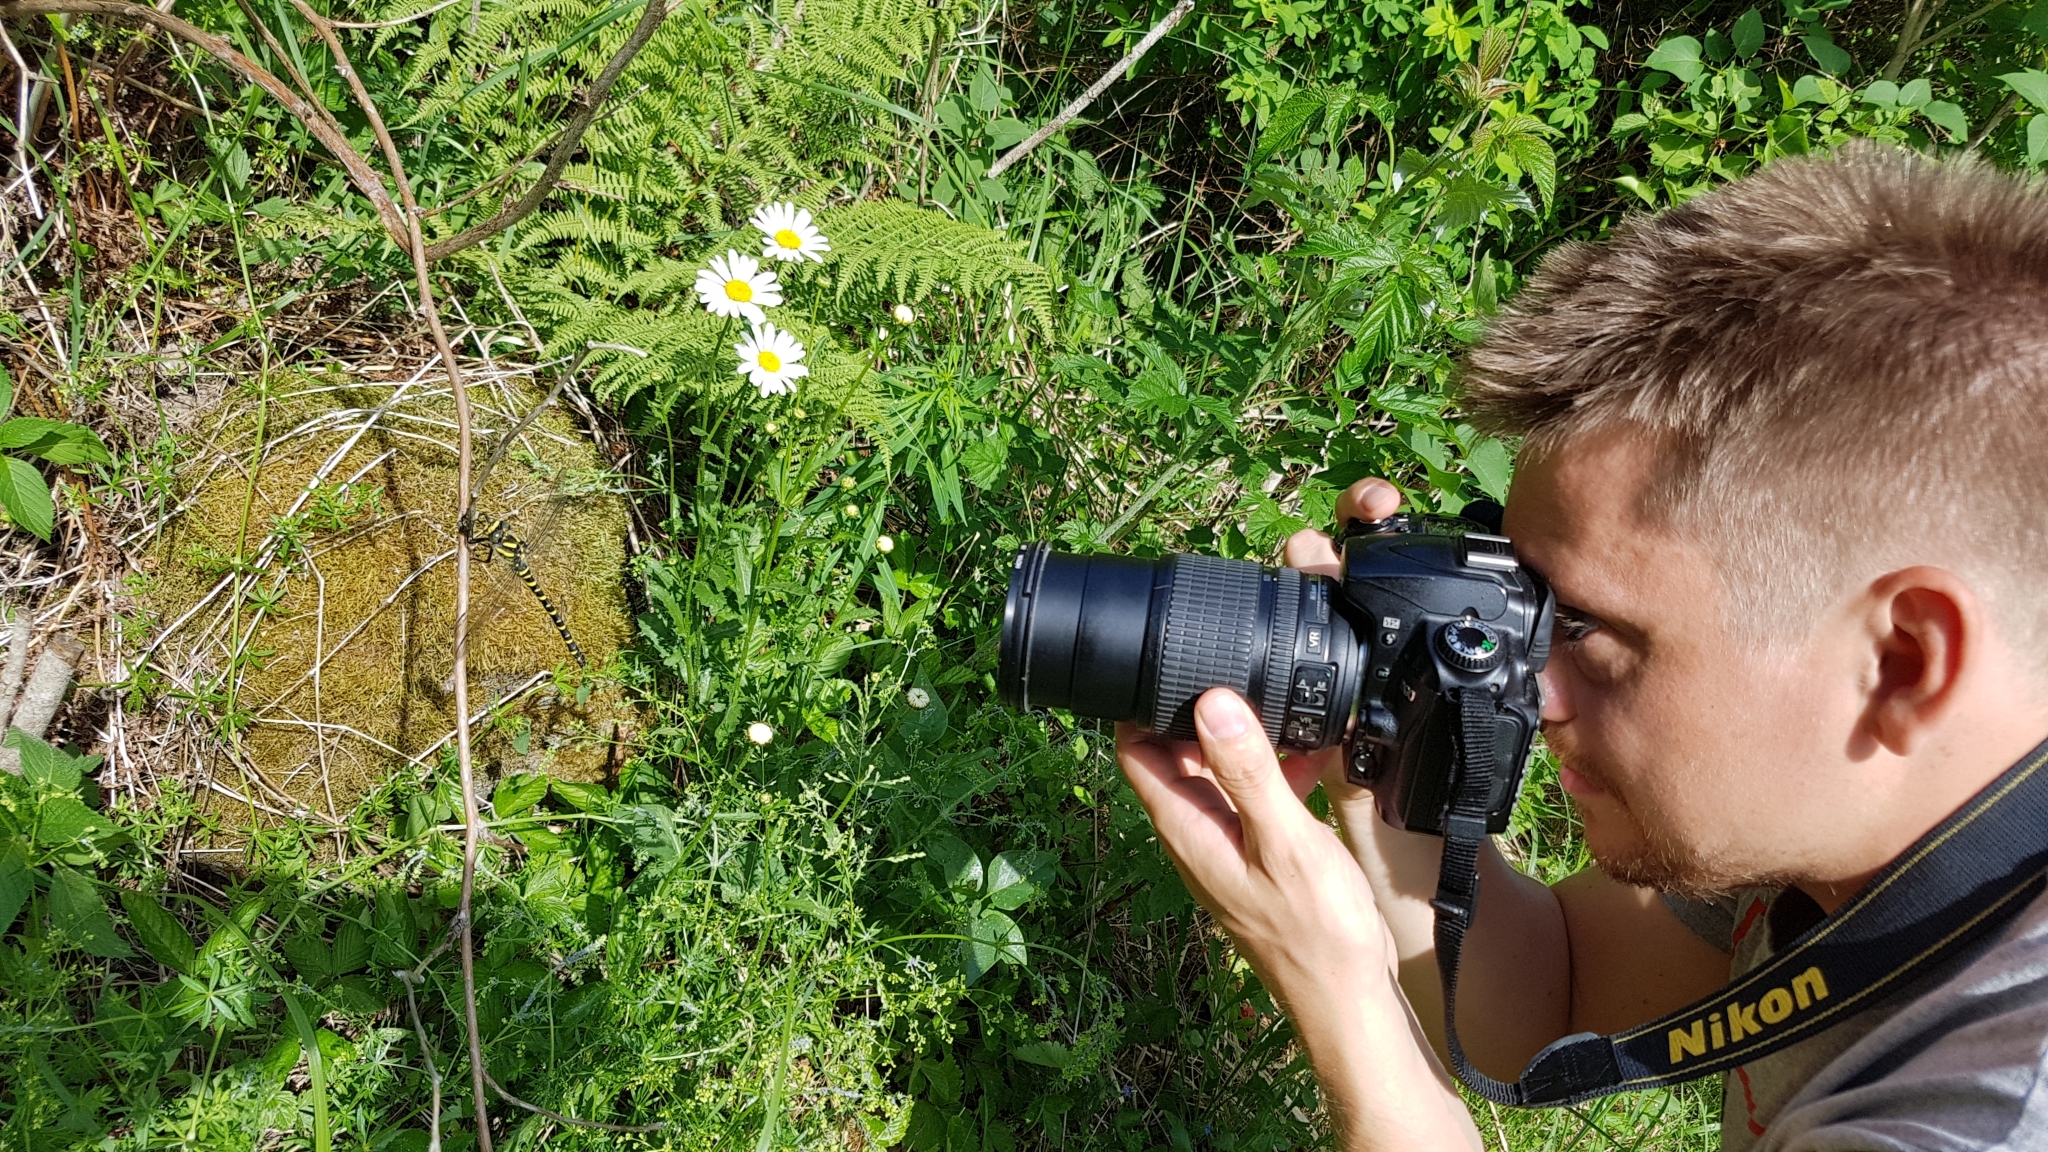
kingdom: Animalia
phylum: Arthropoda
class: Insecta
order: Odonata
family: Cordulegastridae
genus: Cordulegaster
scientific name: Cordulegaster boltonii
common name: Golden-ringed dragonfly
